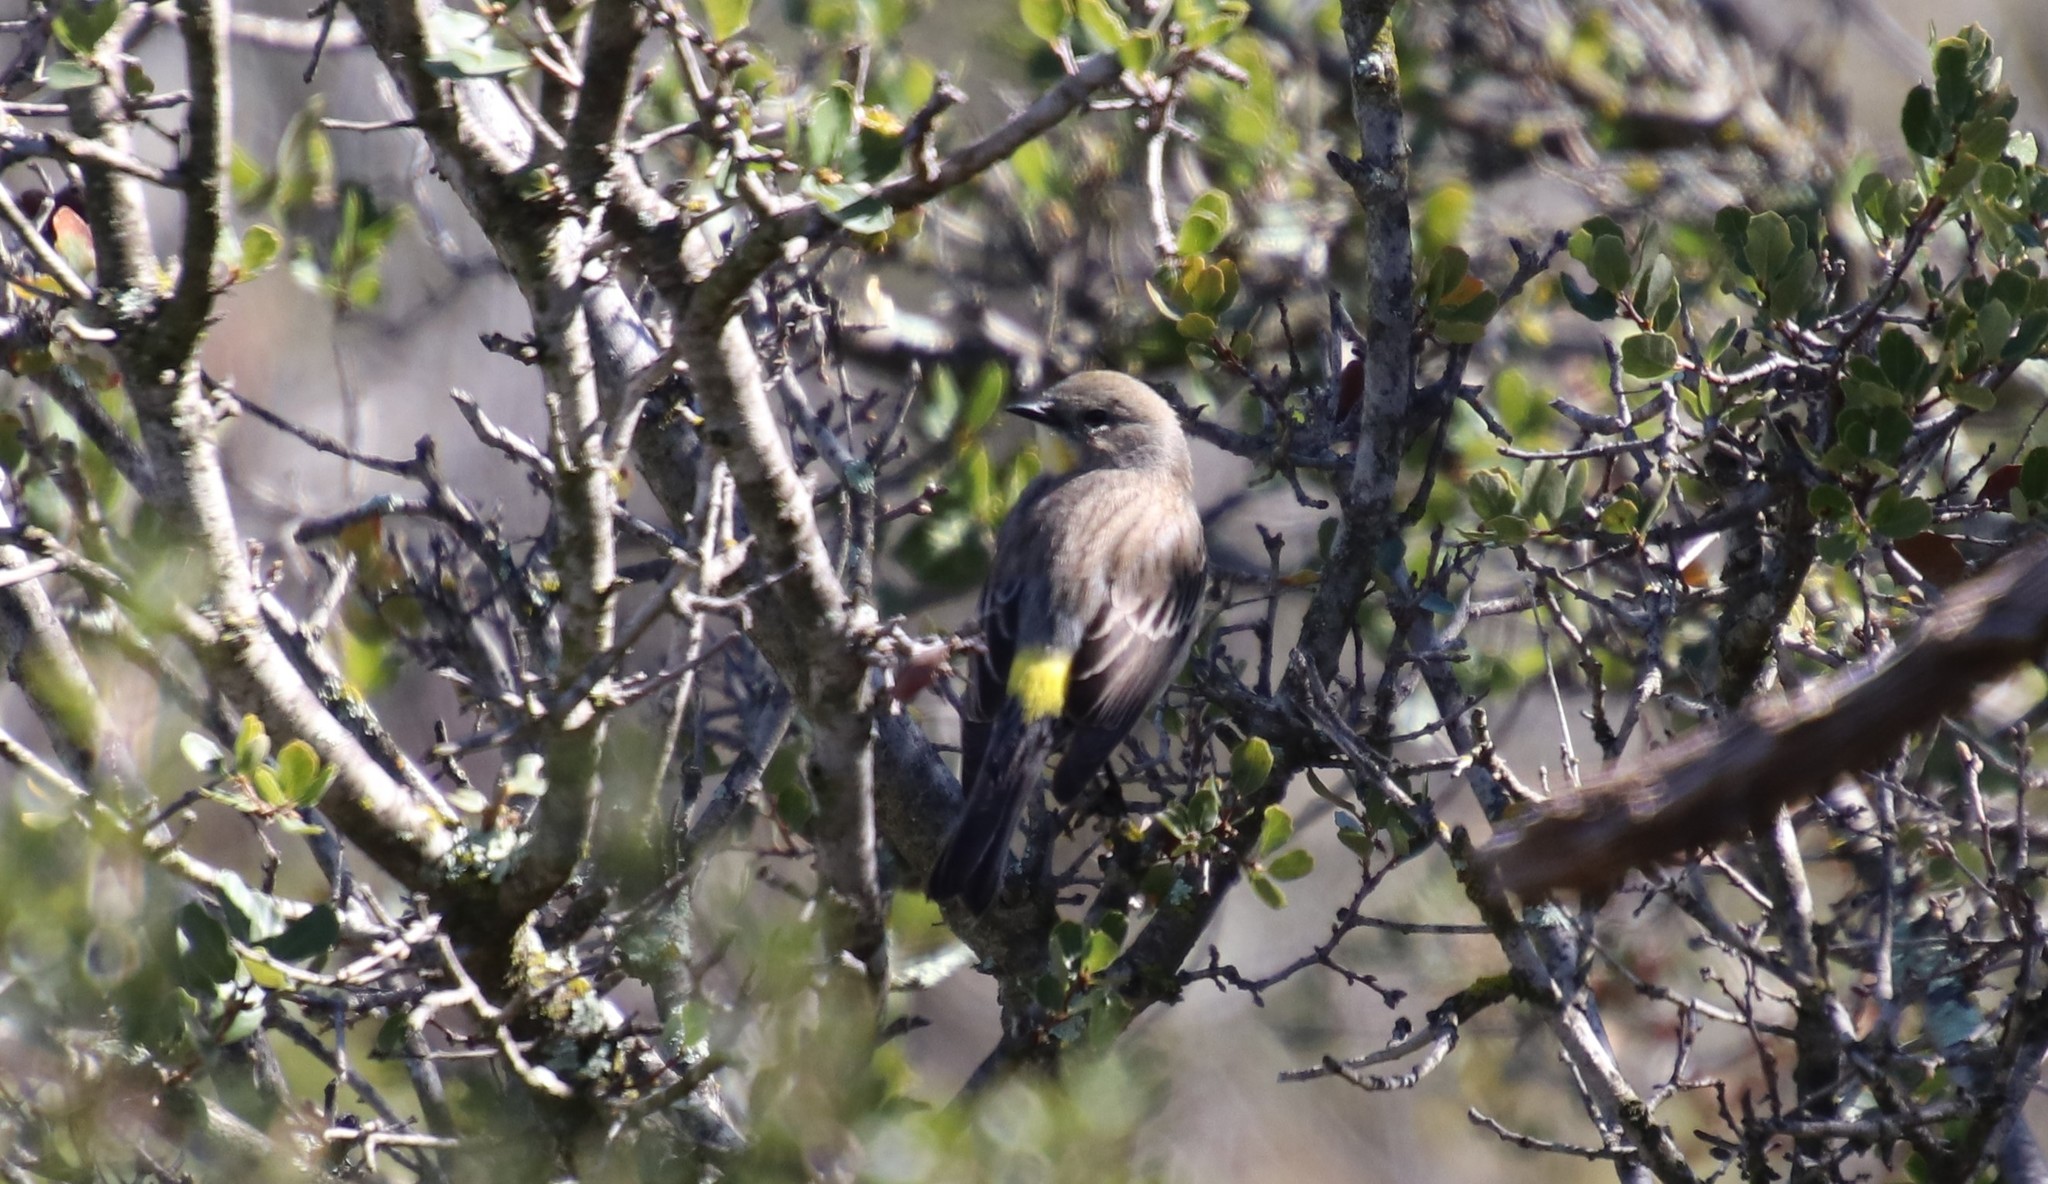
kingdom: Animalia
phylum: Chordata
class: Aves
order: Passeriformes
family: Parulidae
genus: Setophaga
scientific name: Setophaga auduboni
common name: Audubon's warbler
